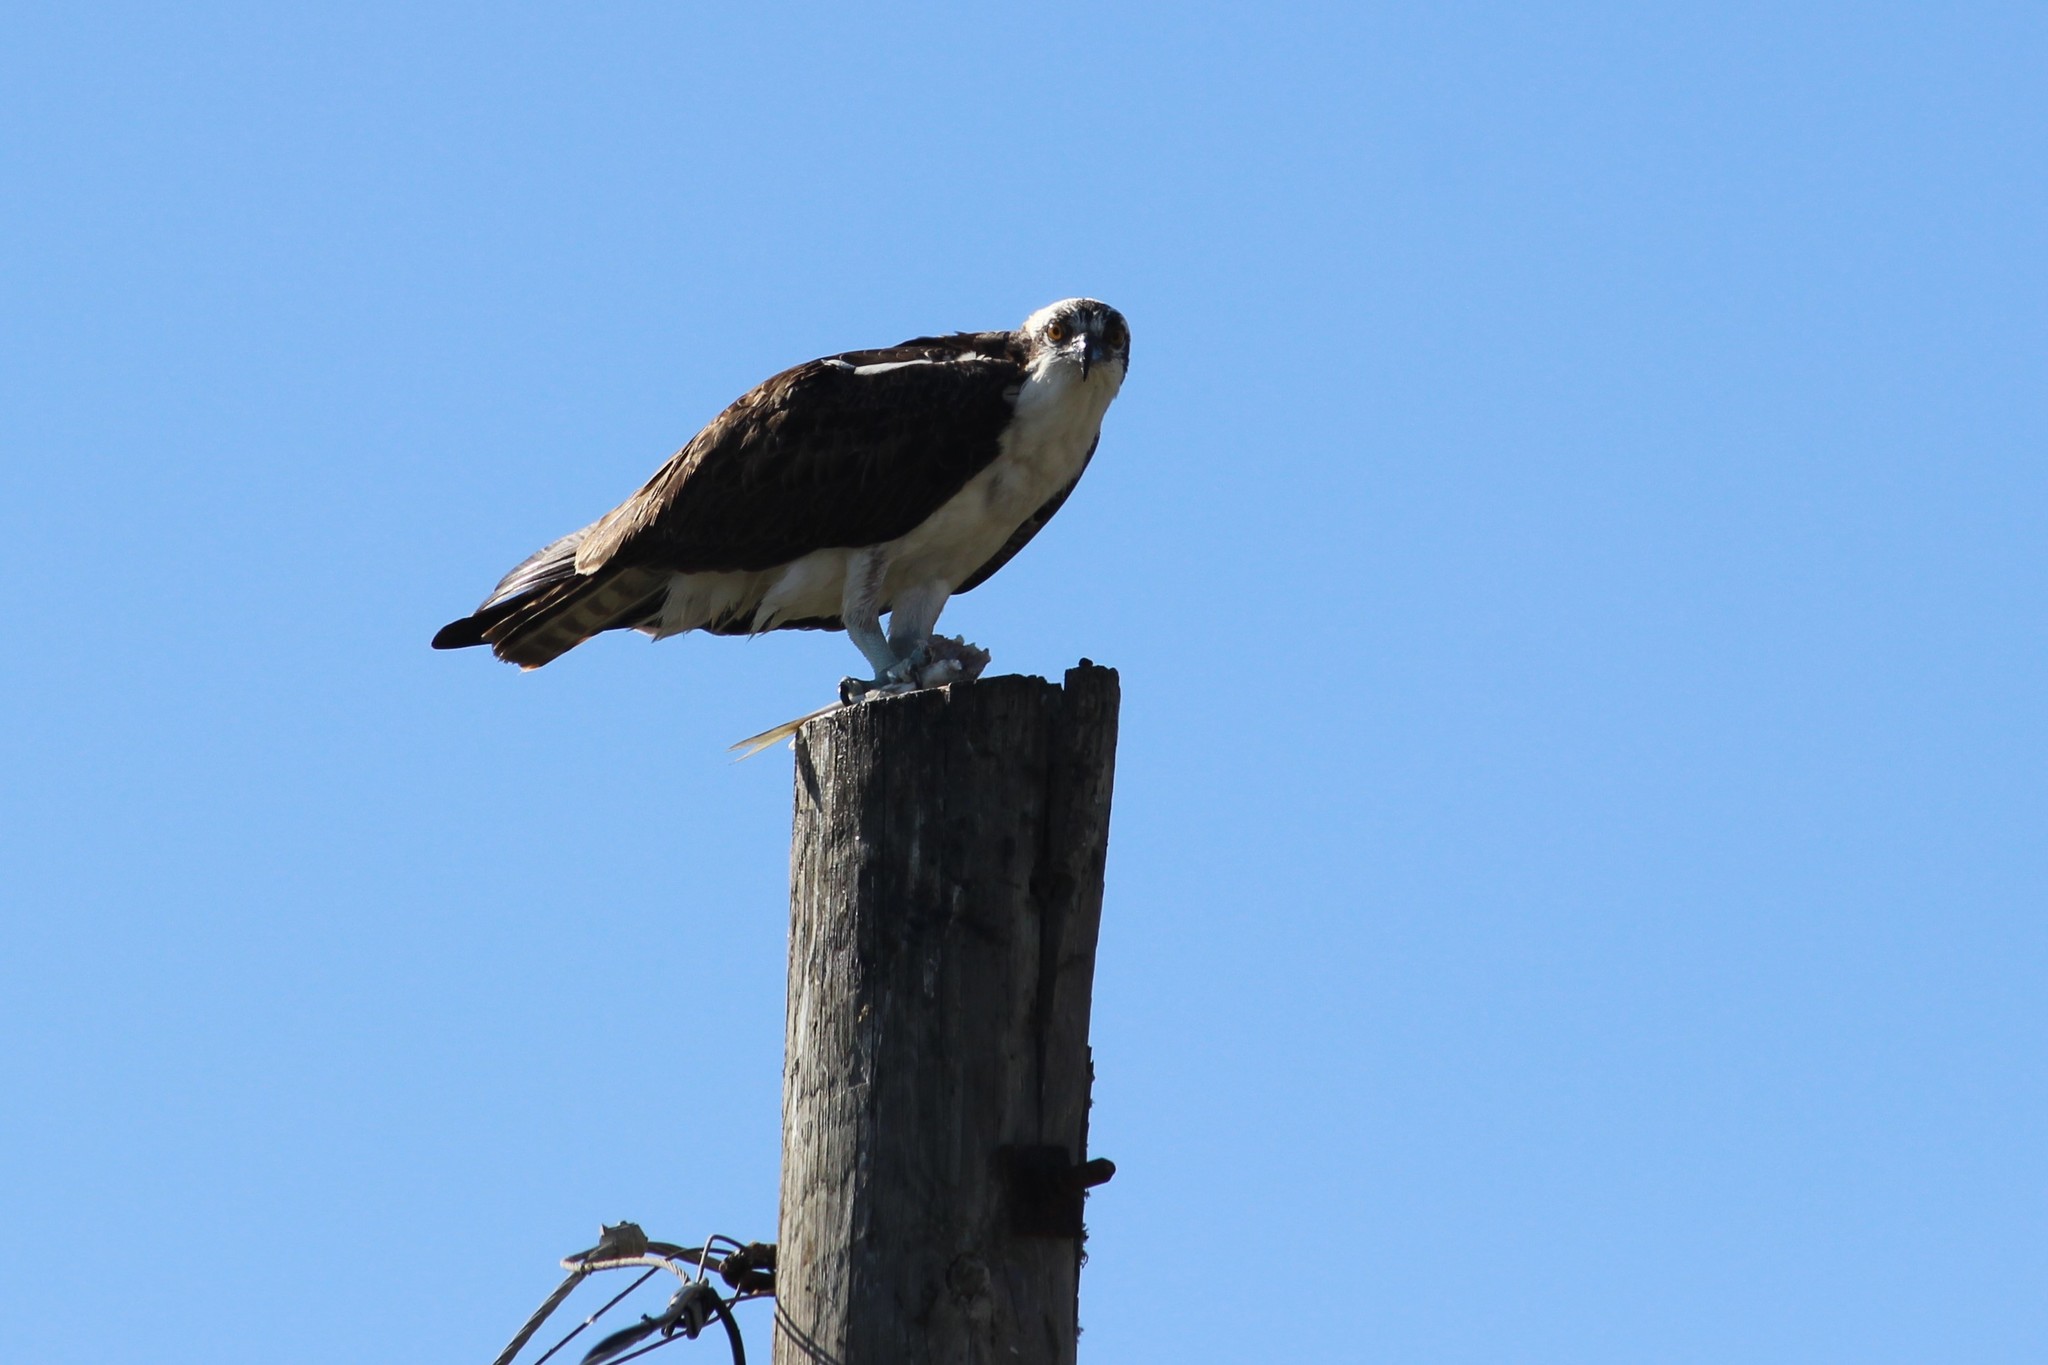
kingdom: Animalia
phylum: Chordata
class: Aves
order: Accipitriformes
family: Pandionidae
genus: Pandion
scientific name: Pandion haliaetus
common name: Osprey
